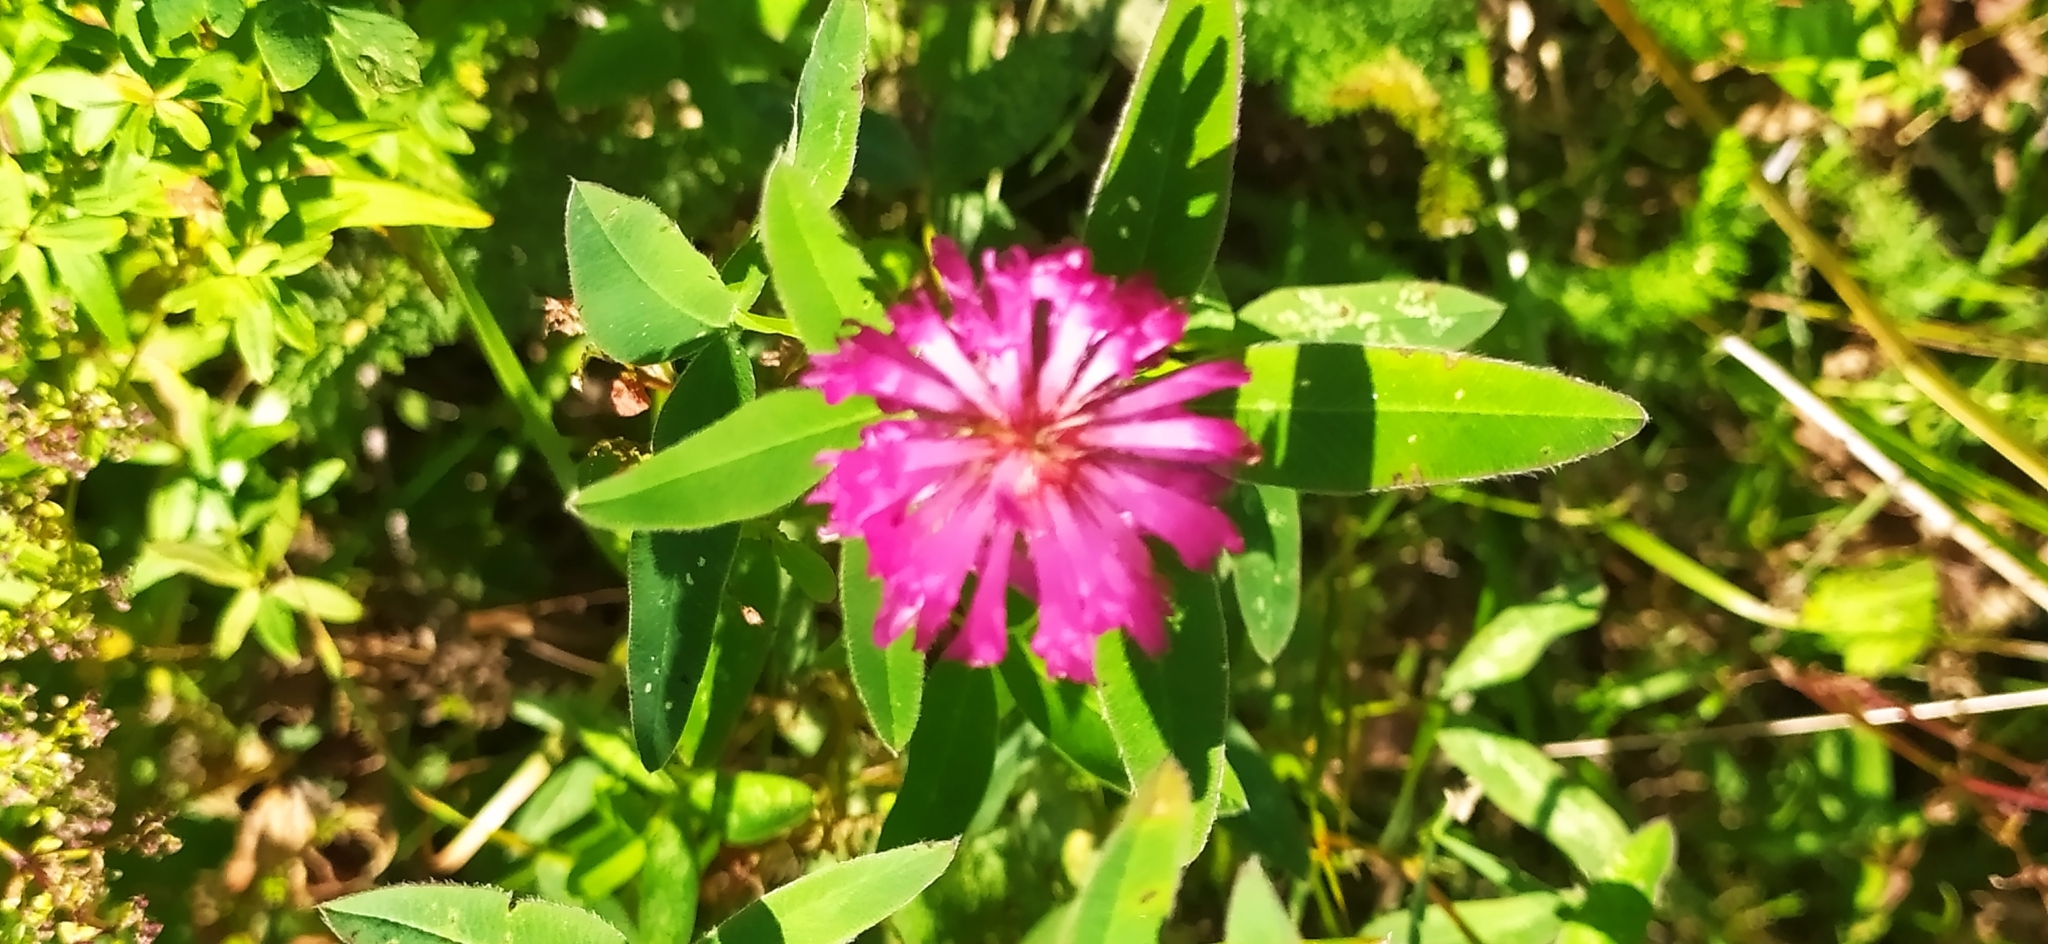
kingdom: Plantae
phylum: Tracheophyta
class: Magnoliopsida
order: Fabales
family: Fabaceae
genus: Trifolium
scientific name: Trifolium medium
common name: Zigzag clover
